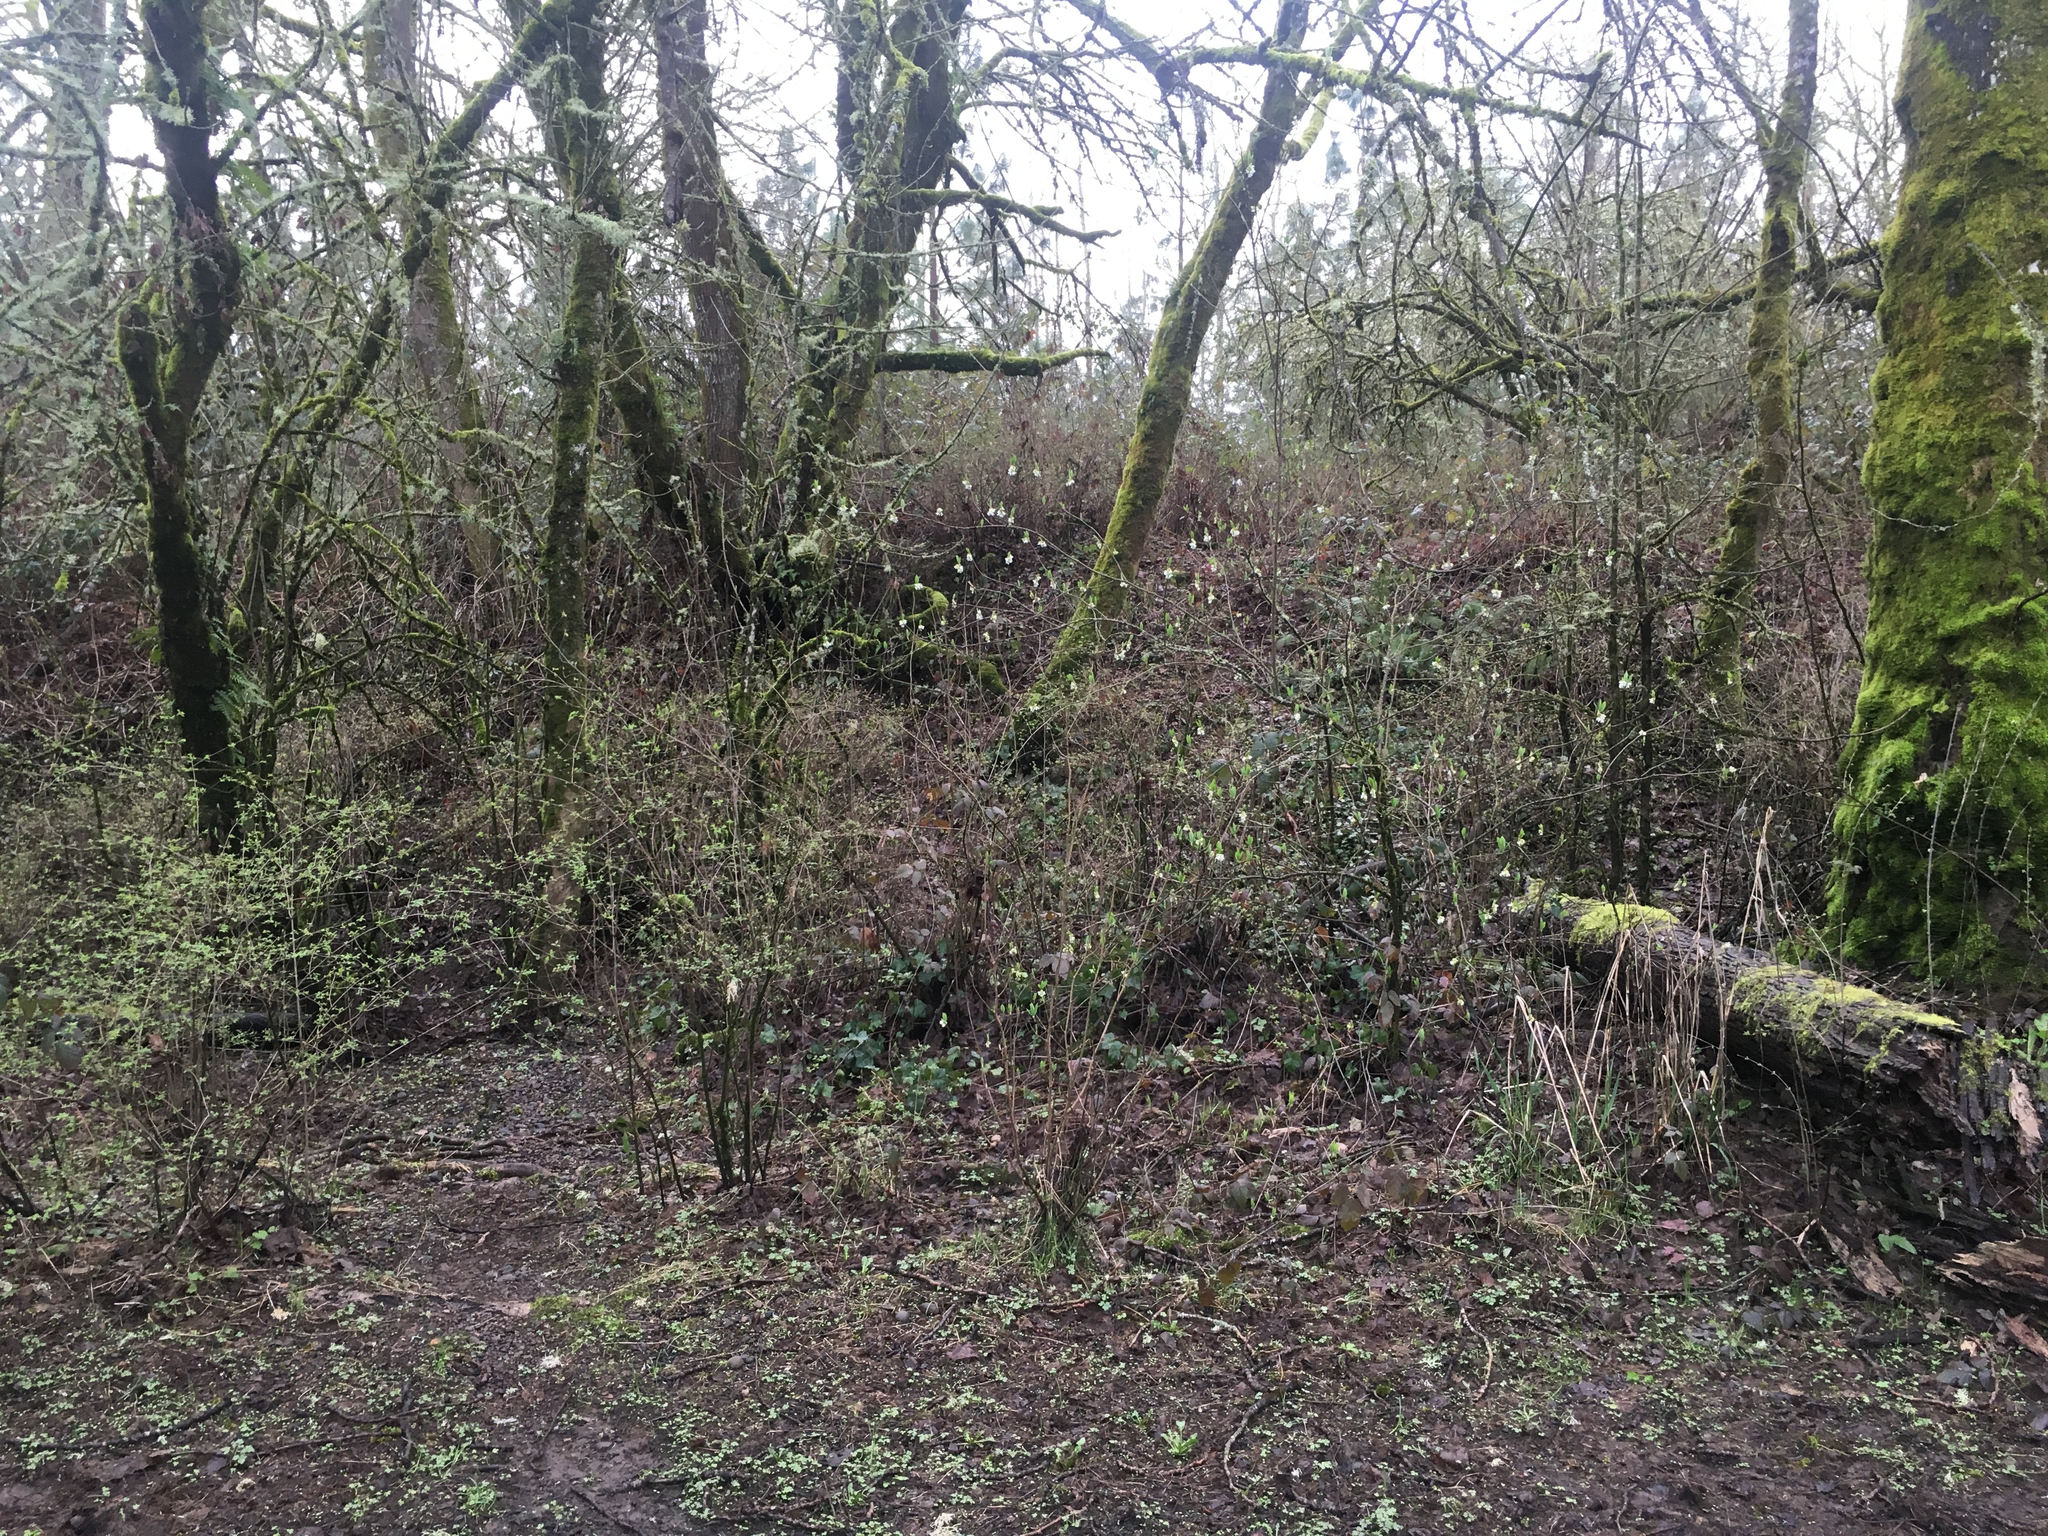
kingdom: Plantae
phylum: Tracheophyta
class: Magnoliopsida
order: Rosales
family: Rosaceae
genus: Oemleria
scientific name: Oemleria cerasiformis
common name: Osoberry
